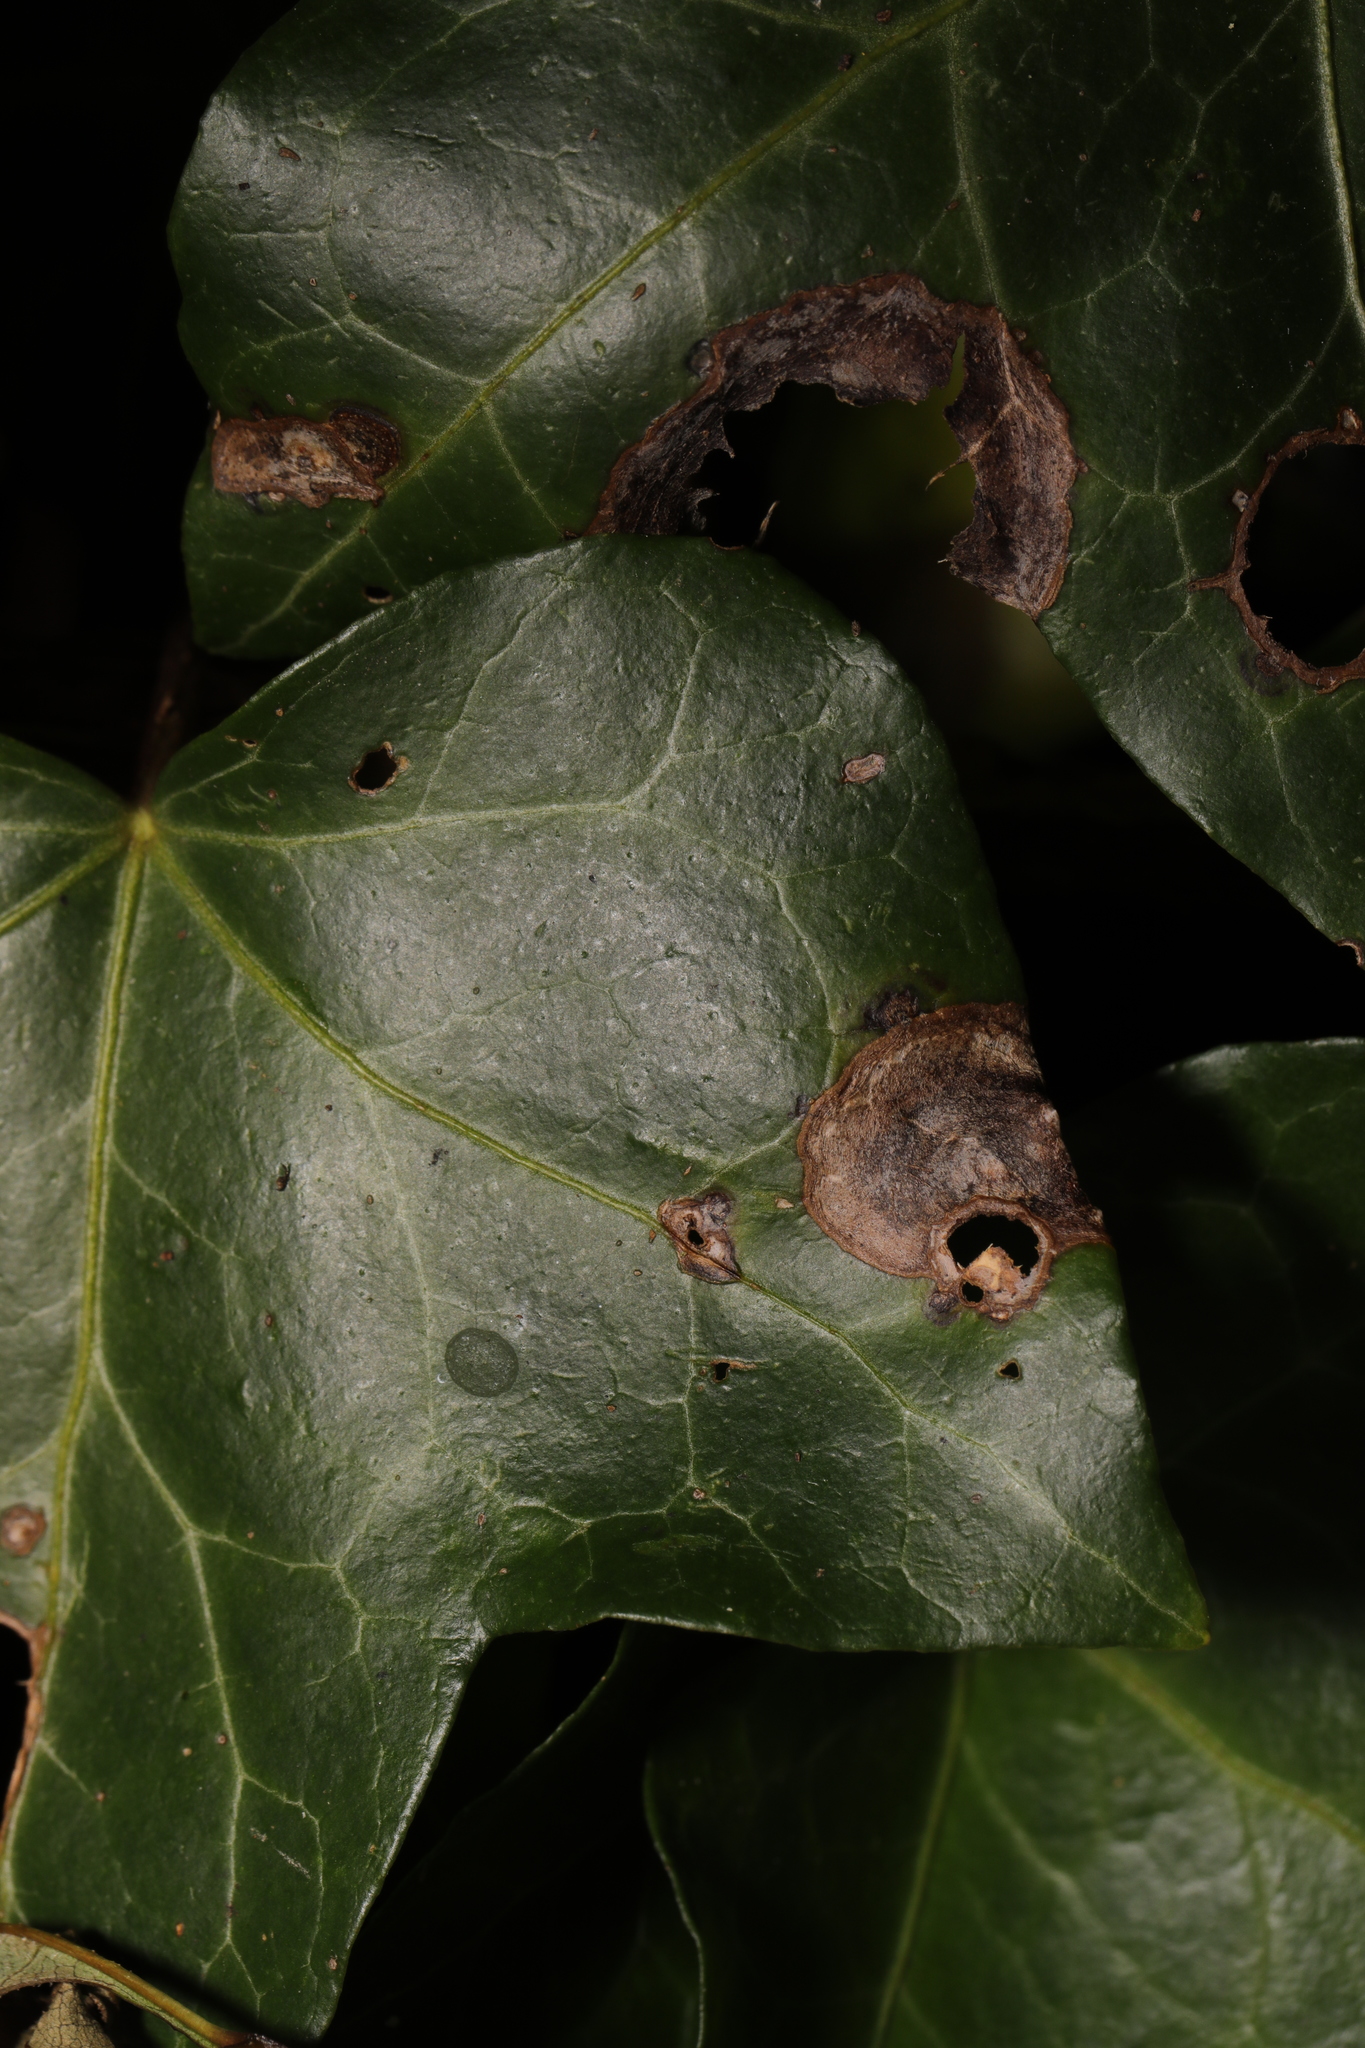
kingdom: Plantae
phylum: Tracheophyta
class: Magnoliopsida
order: Apiales
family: Araliaceae
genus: Hedera
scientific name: Hedera helix
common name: Ivy
